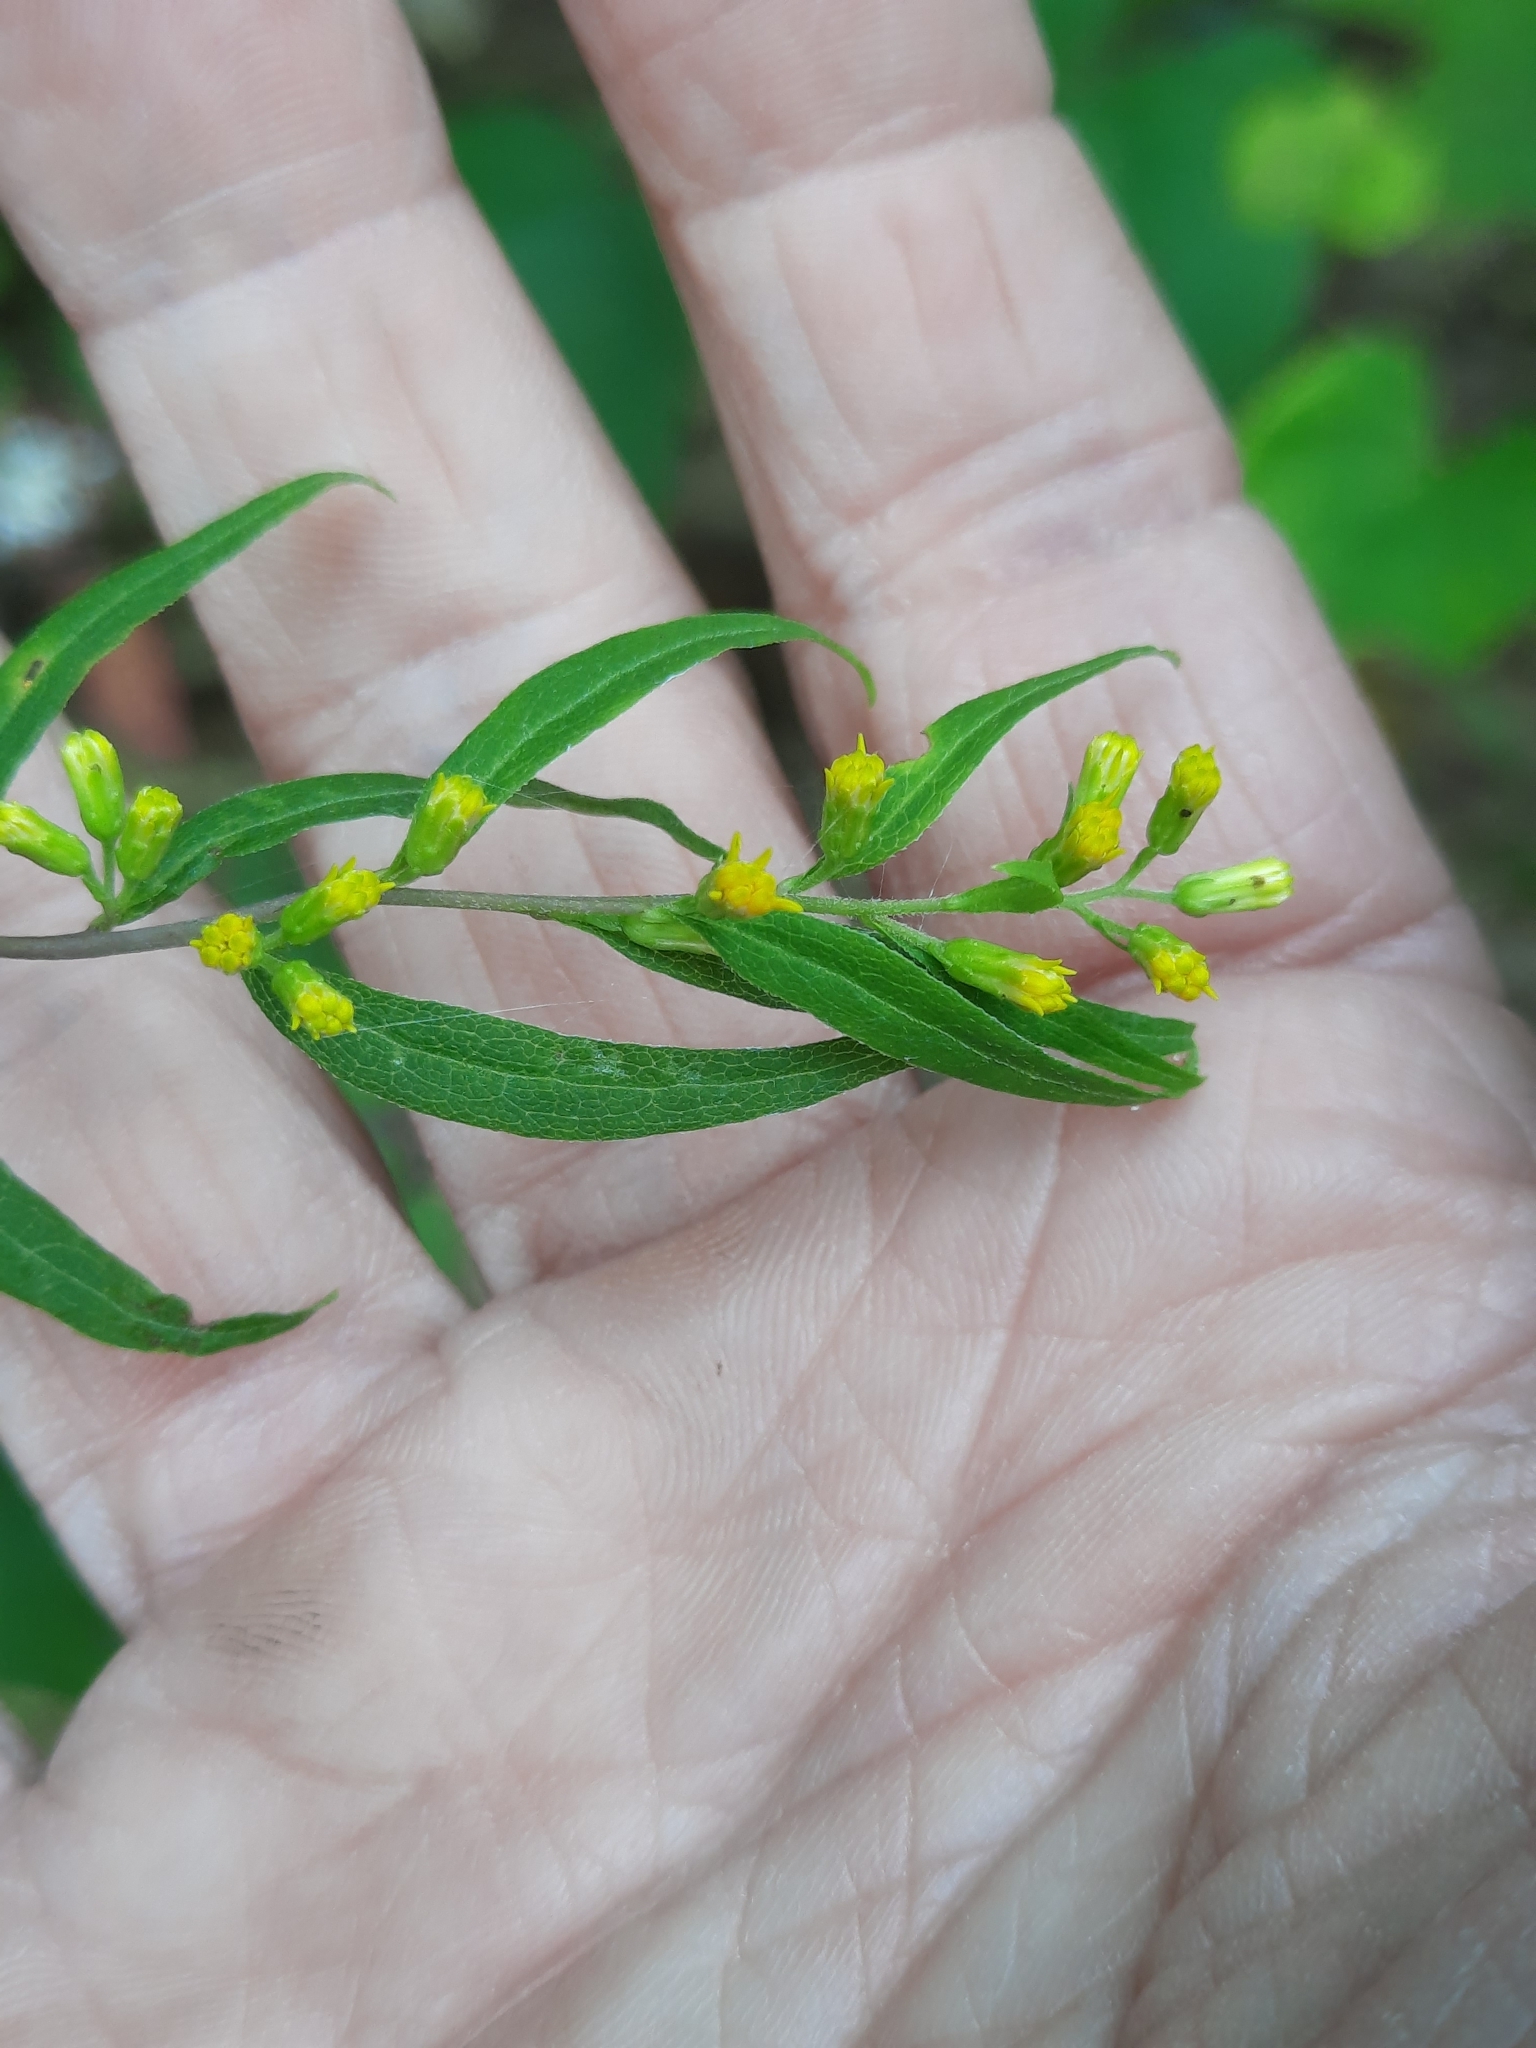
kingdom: Plantae
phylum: Tracheophyta
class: Magnoliopsida
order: Asterales
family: Asteraceae
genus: Solidago
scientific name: Solidago caesia
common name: Woodland goldenrod
